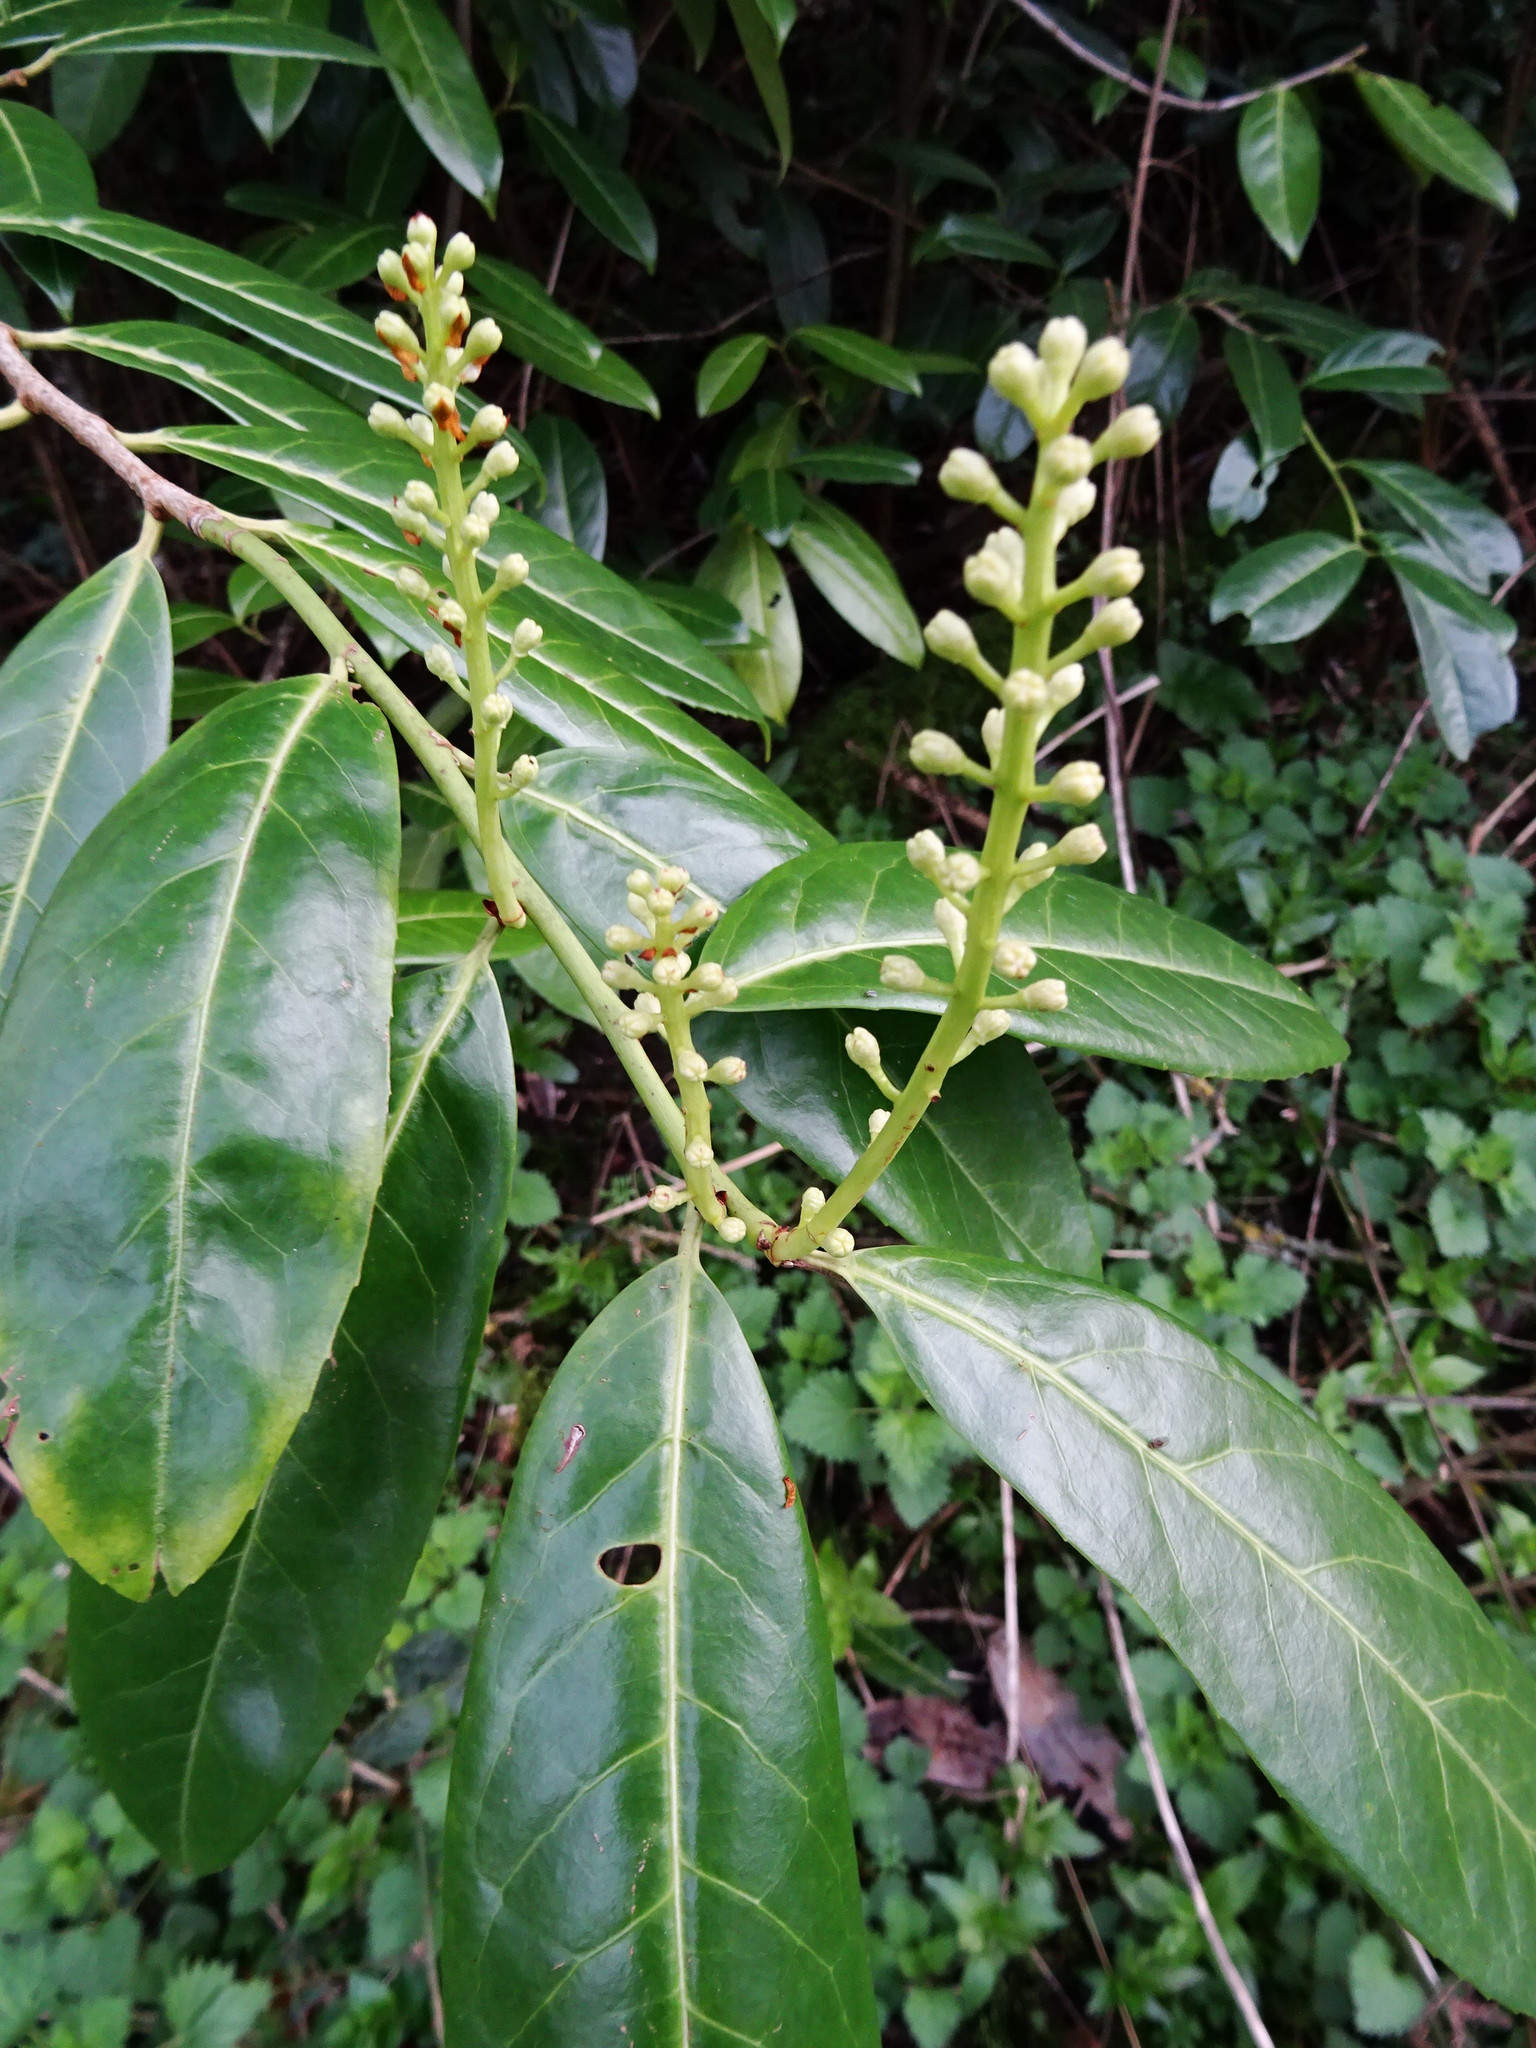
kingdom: Plantae
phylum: Tracheophyta
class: Magnoliopsida
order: Rosales
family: Rosaceae
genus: Prunus
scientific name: Prunus laurocerasus
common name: Cherry laurel
